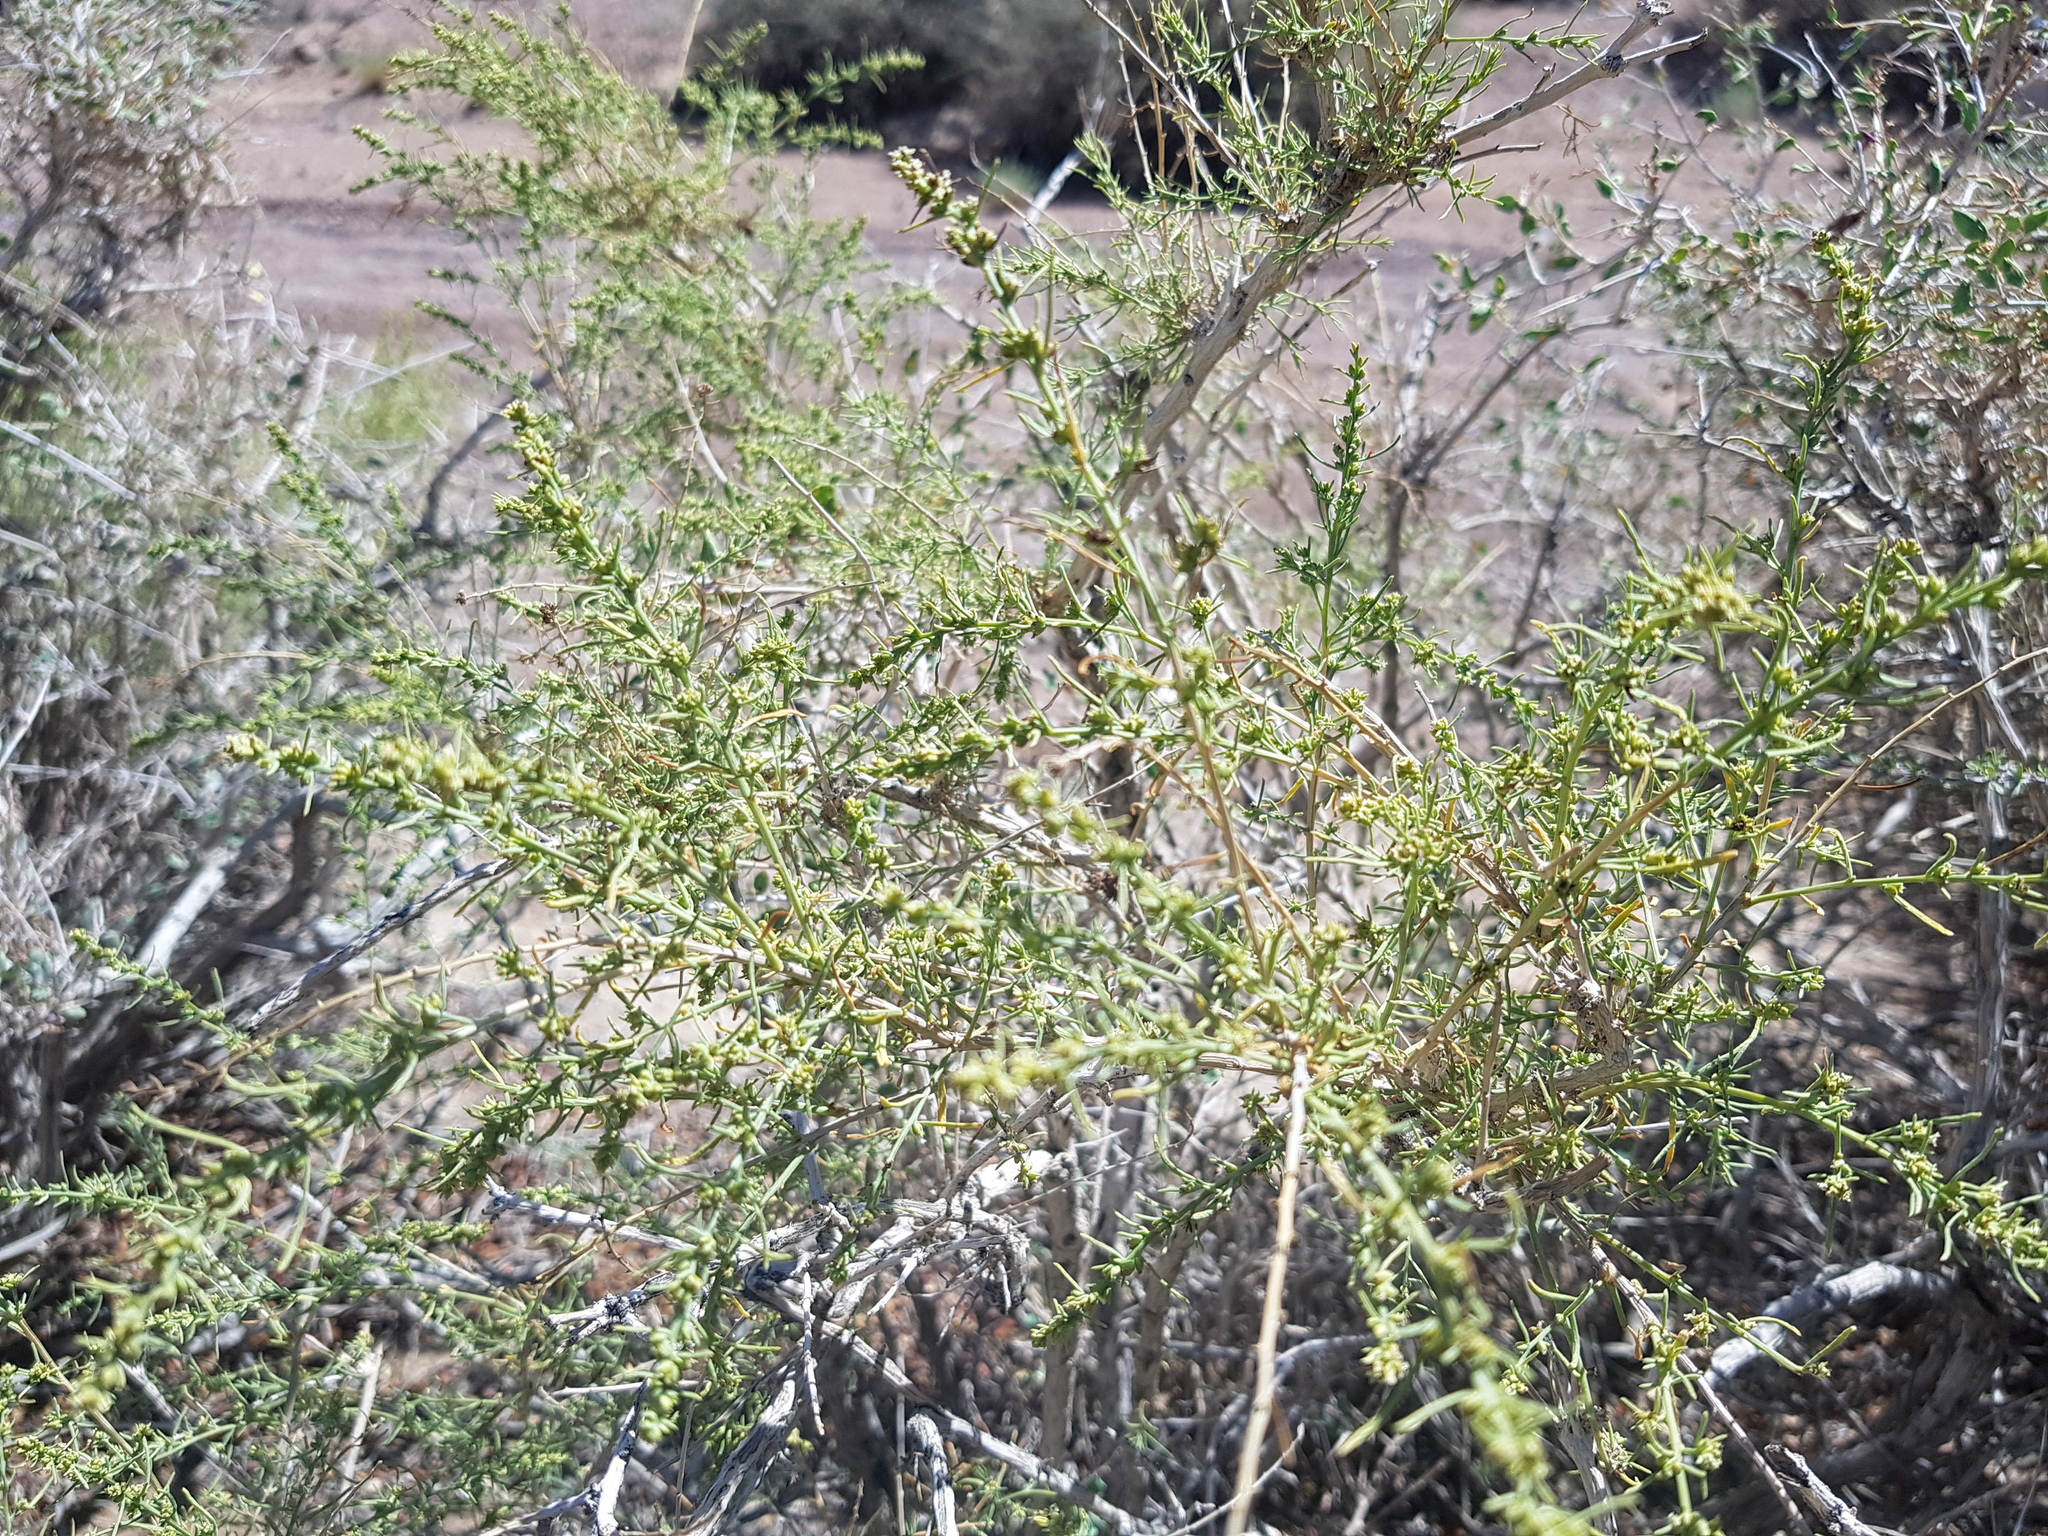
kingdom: Plantae
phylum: Tracheophyta
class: Magnoliopsida
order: Caryophyllales
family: Amaranthaceae
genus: Sympegma
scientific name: Sympegma regelii
